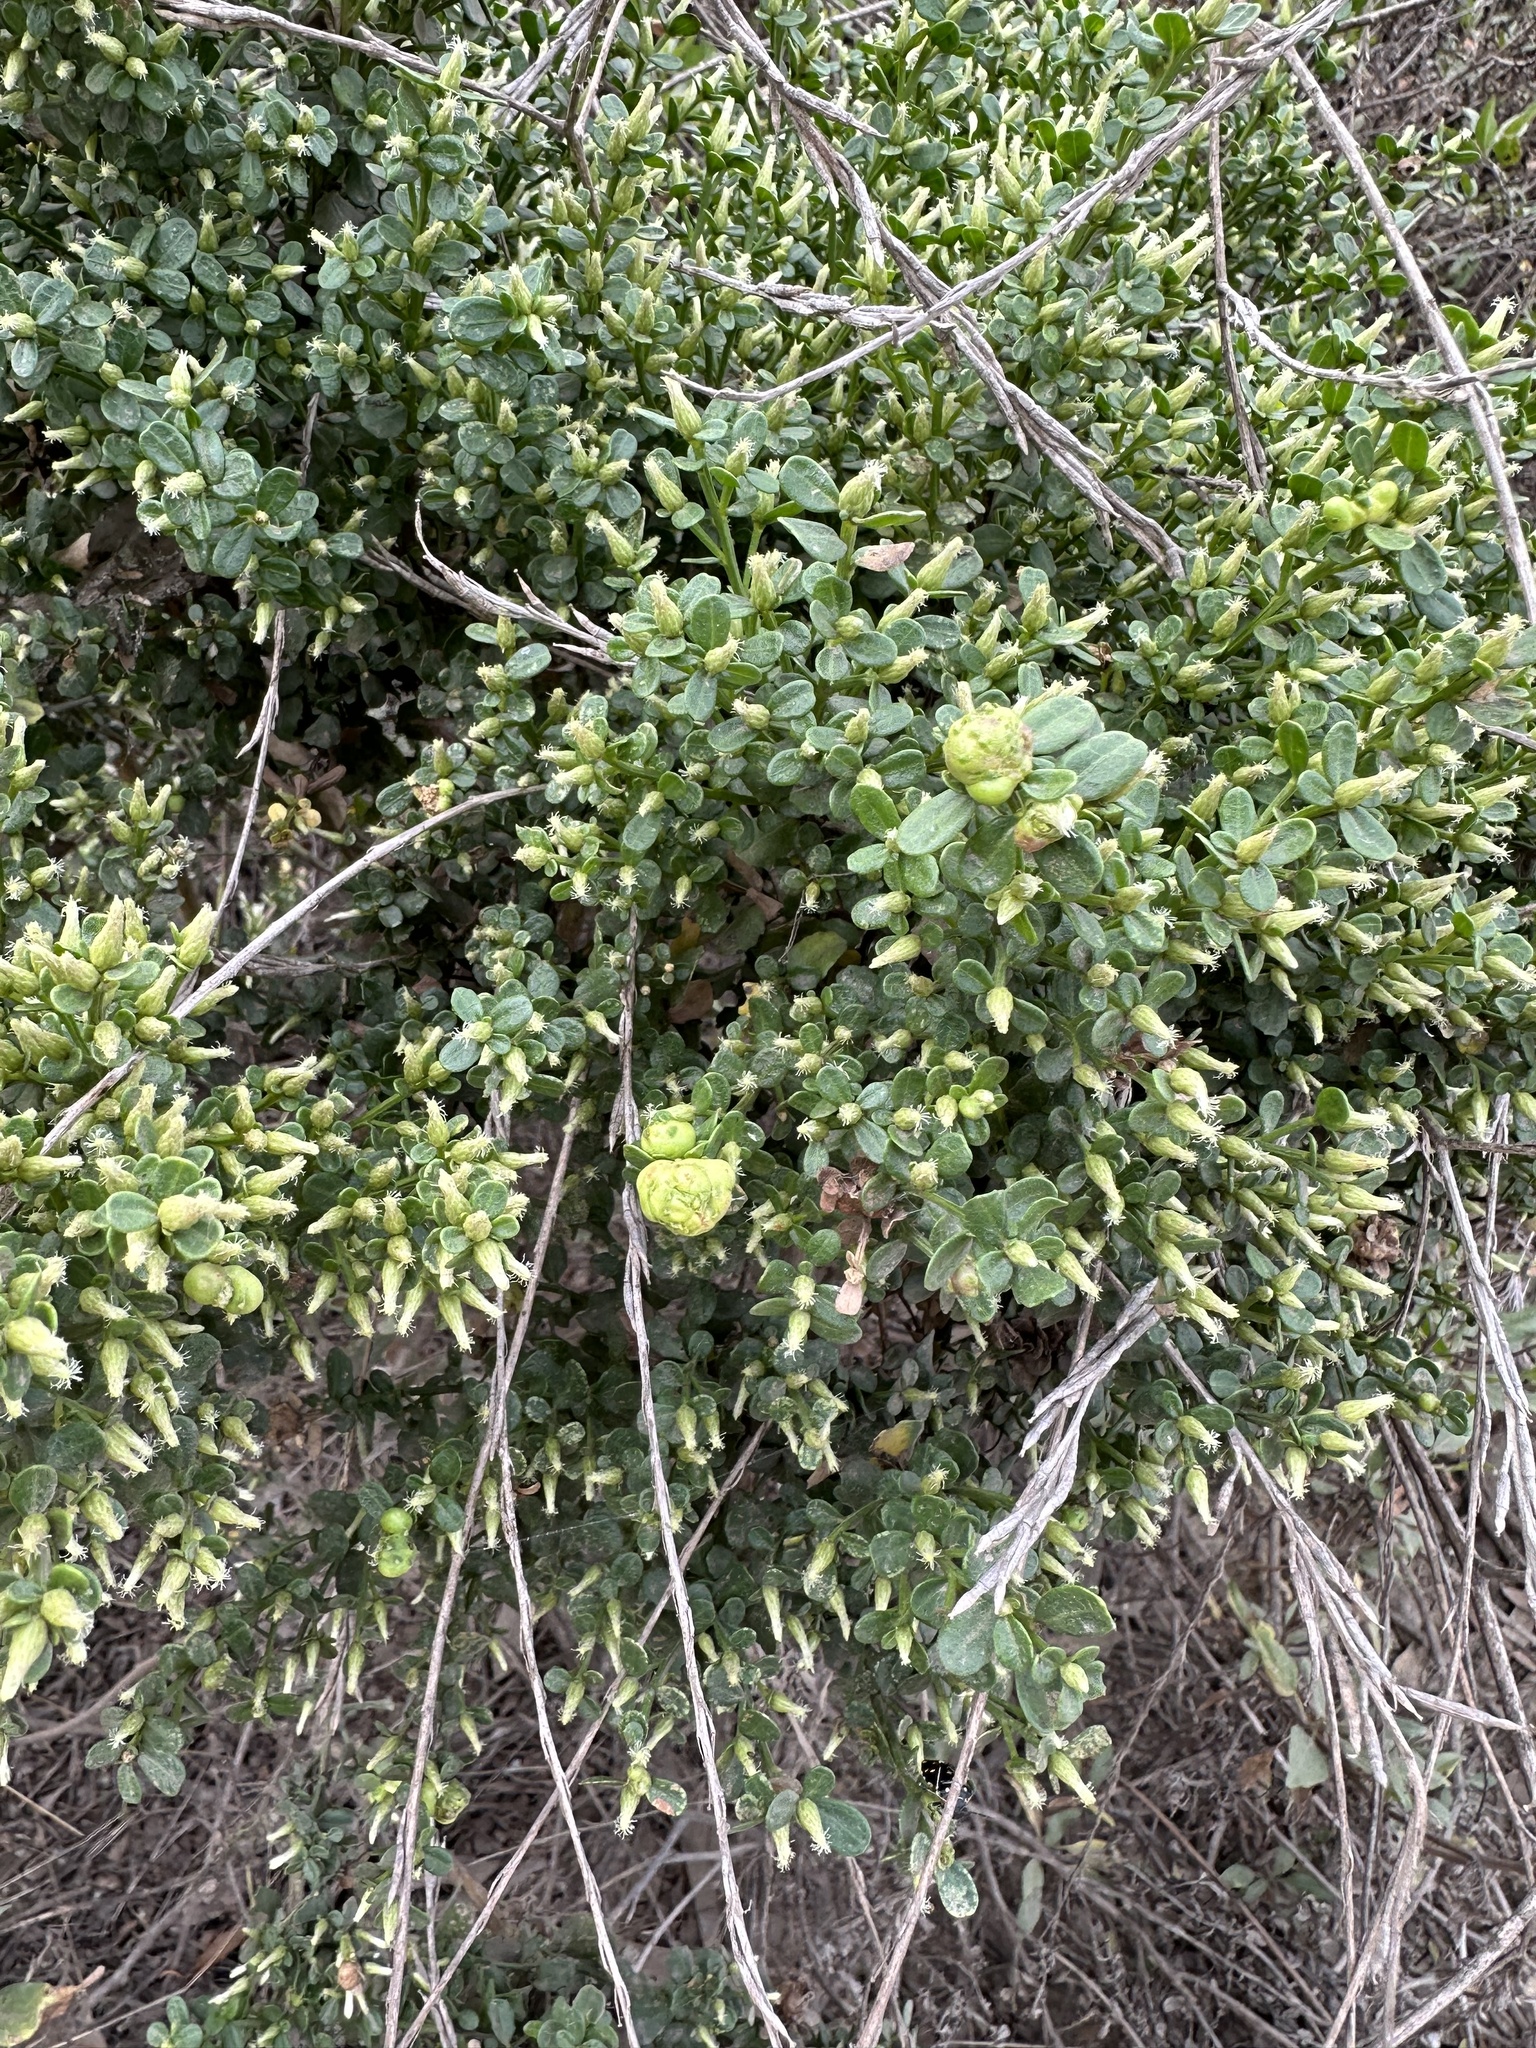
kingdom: Animalia
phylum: Arthropoda
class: Insecta
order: Diptera
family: Cecidomyiidae
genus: Rhopalomyia
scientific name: Rhopalomyia californica
